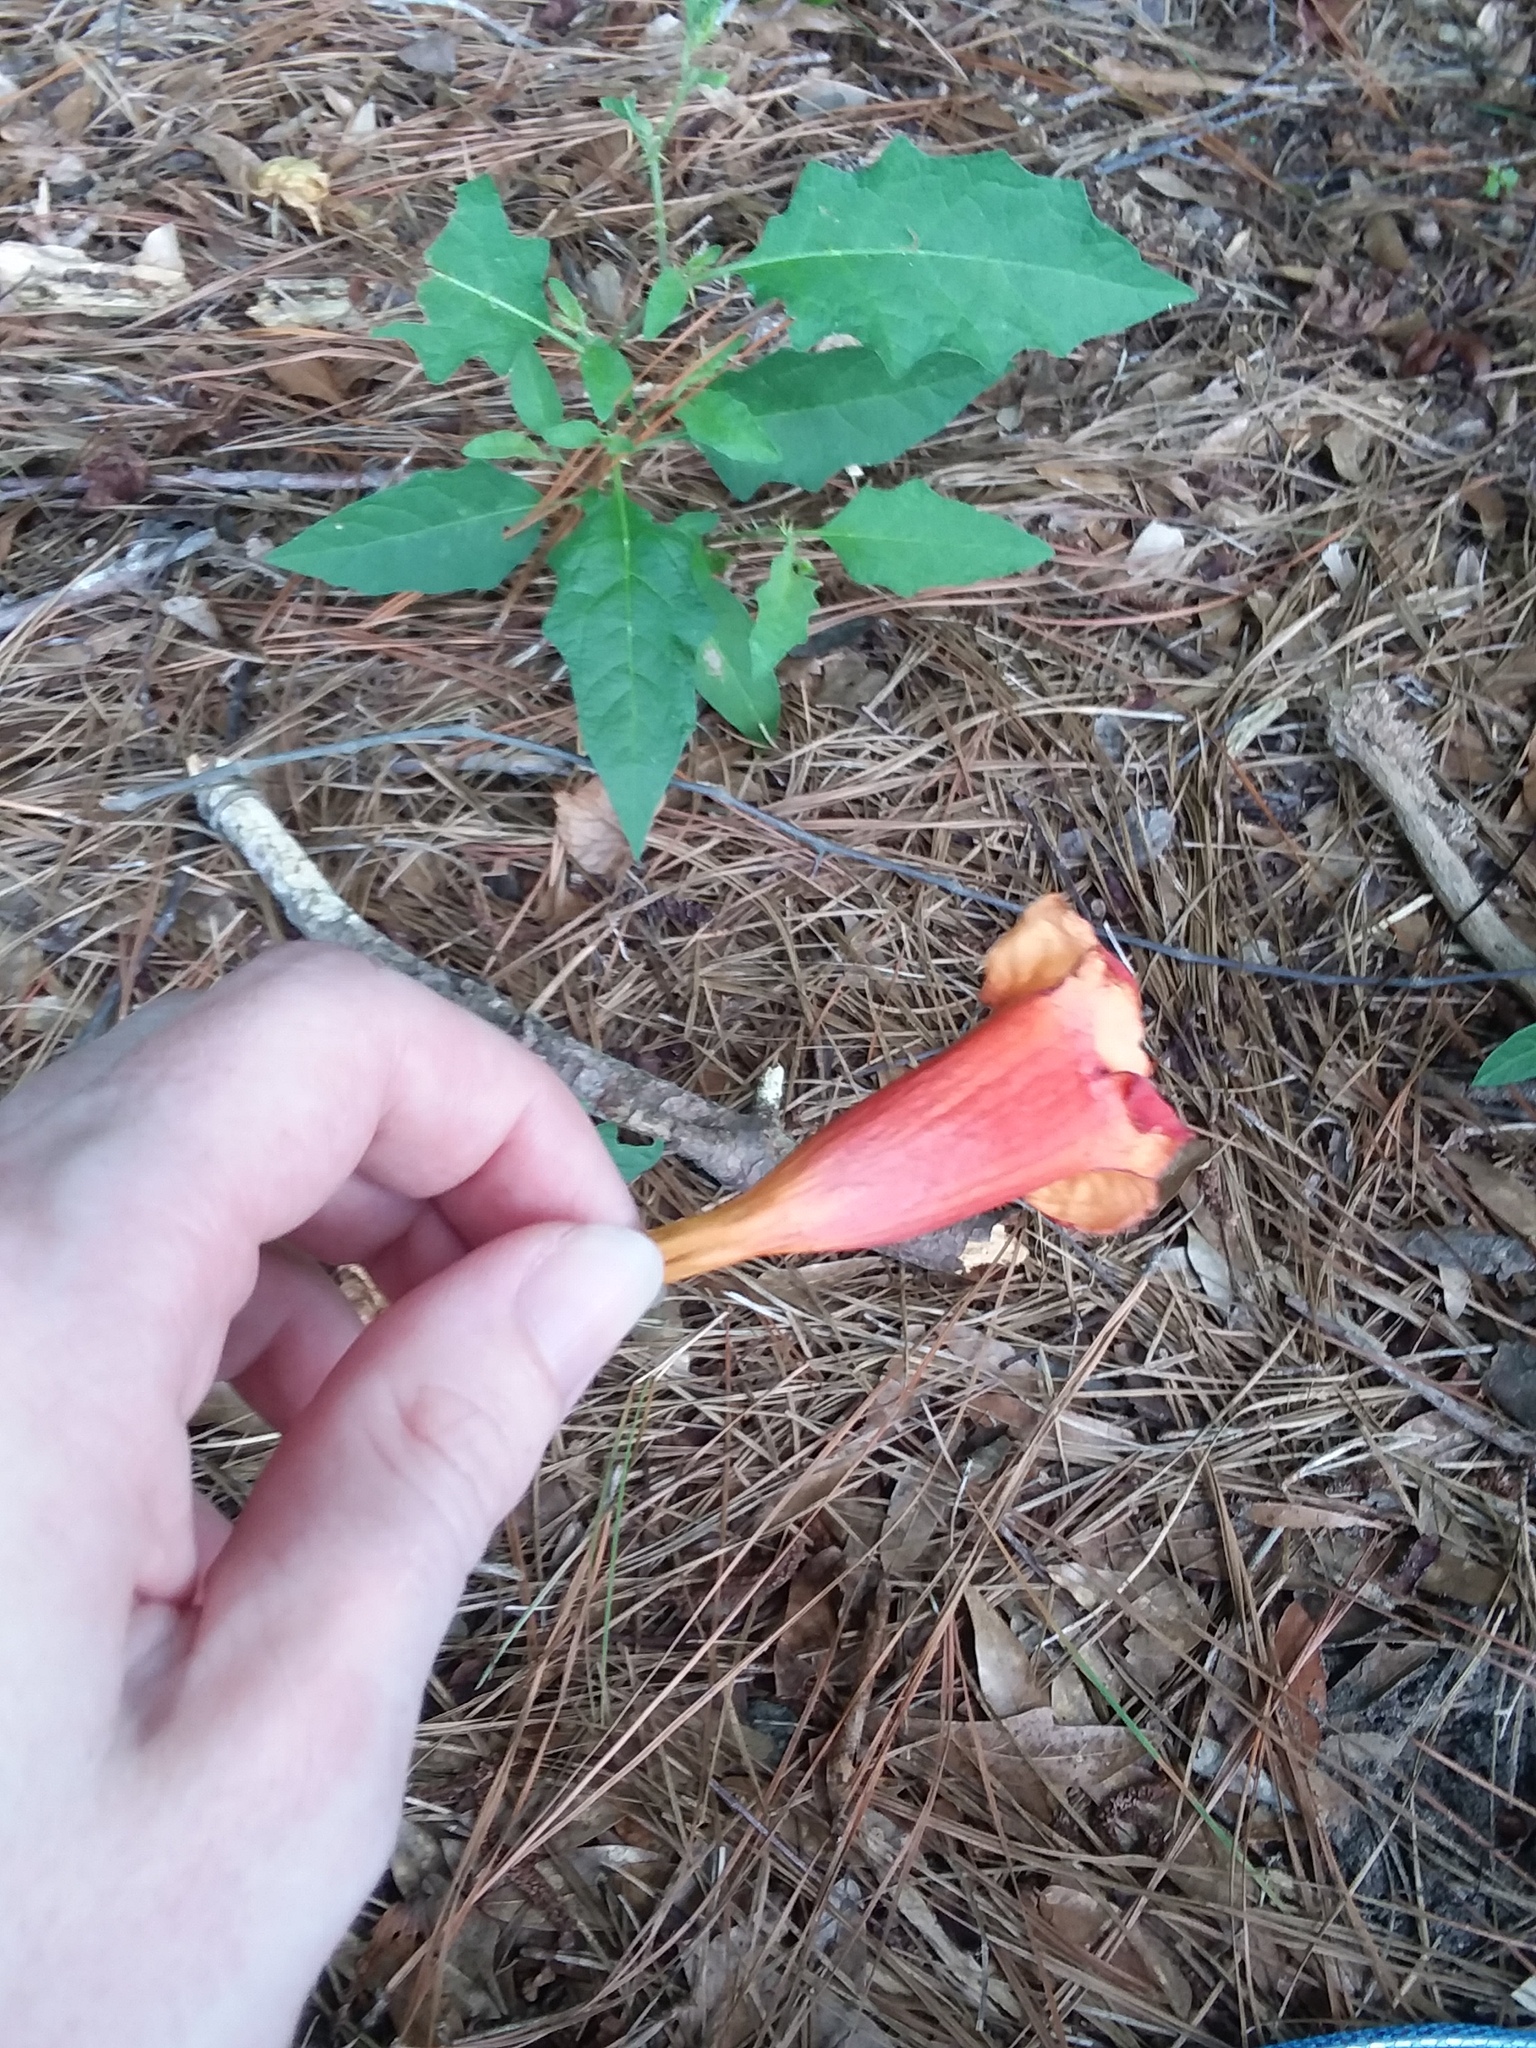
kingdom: Plantae
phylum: Tracheophyta
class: Magnoliopsida
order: Lamiales
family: Bignoniaceae
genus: Campsis
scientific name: Campsis radicans
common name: Trumpet-creeper
